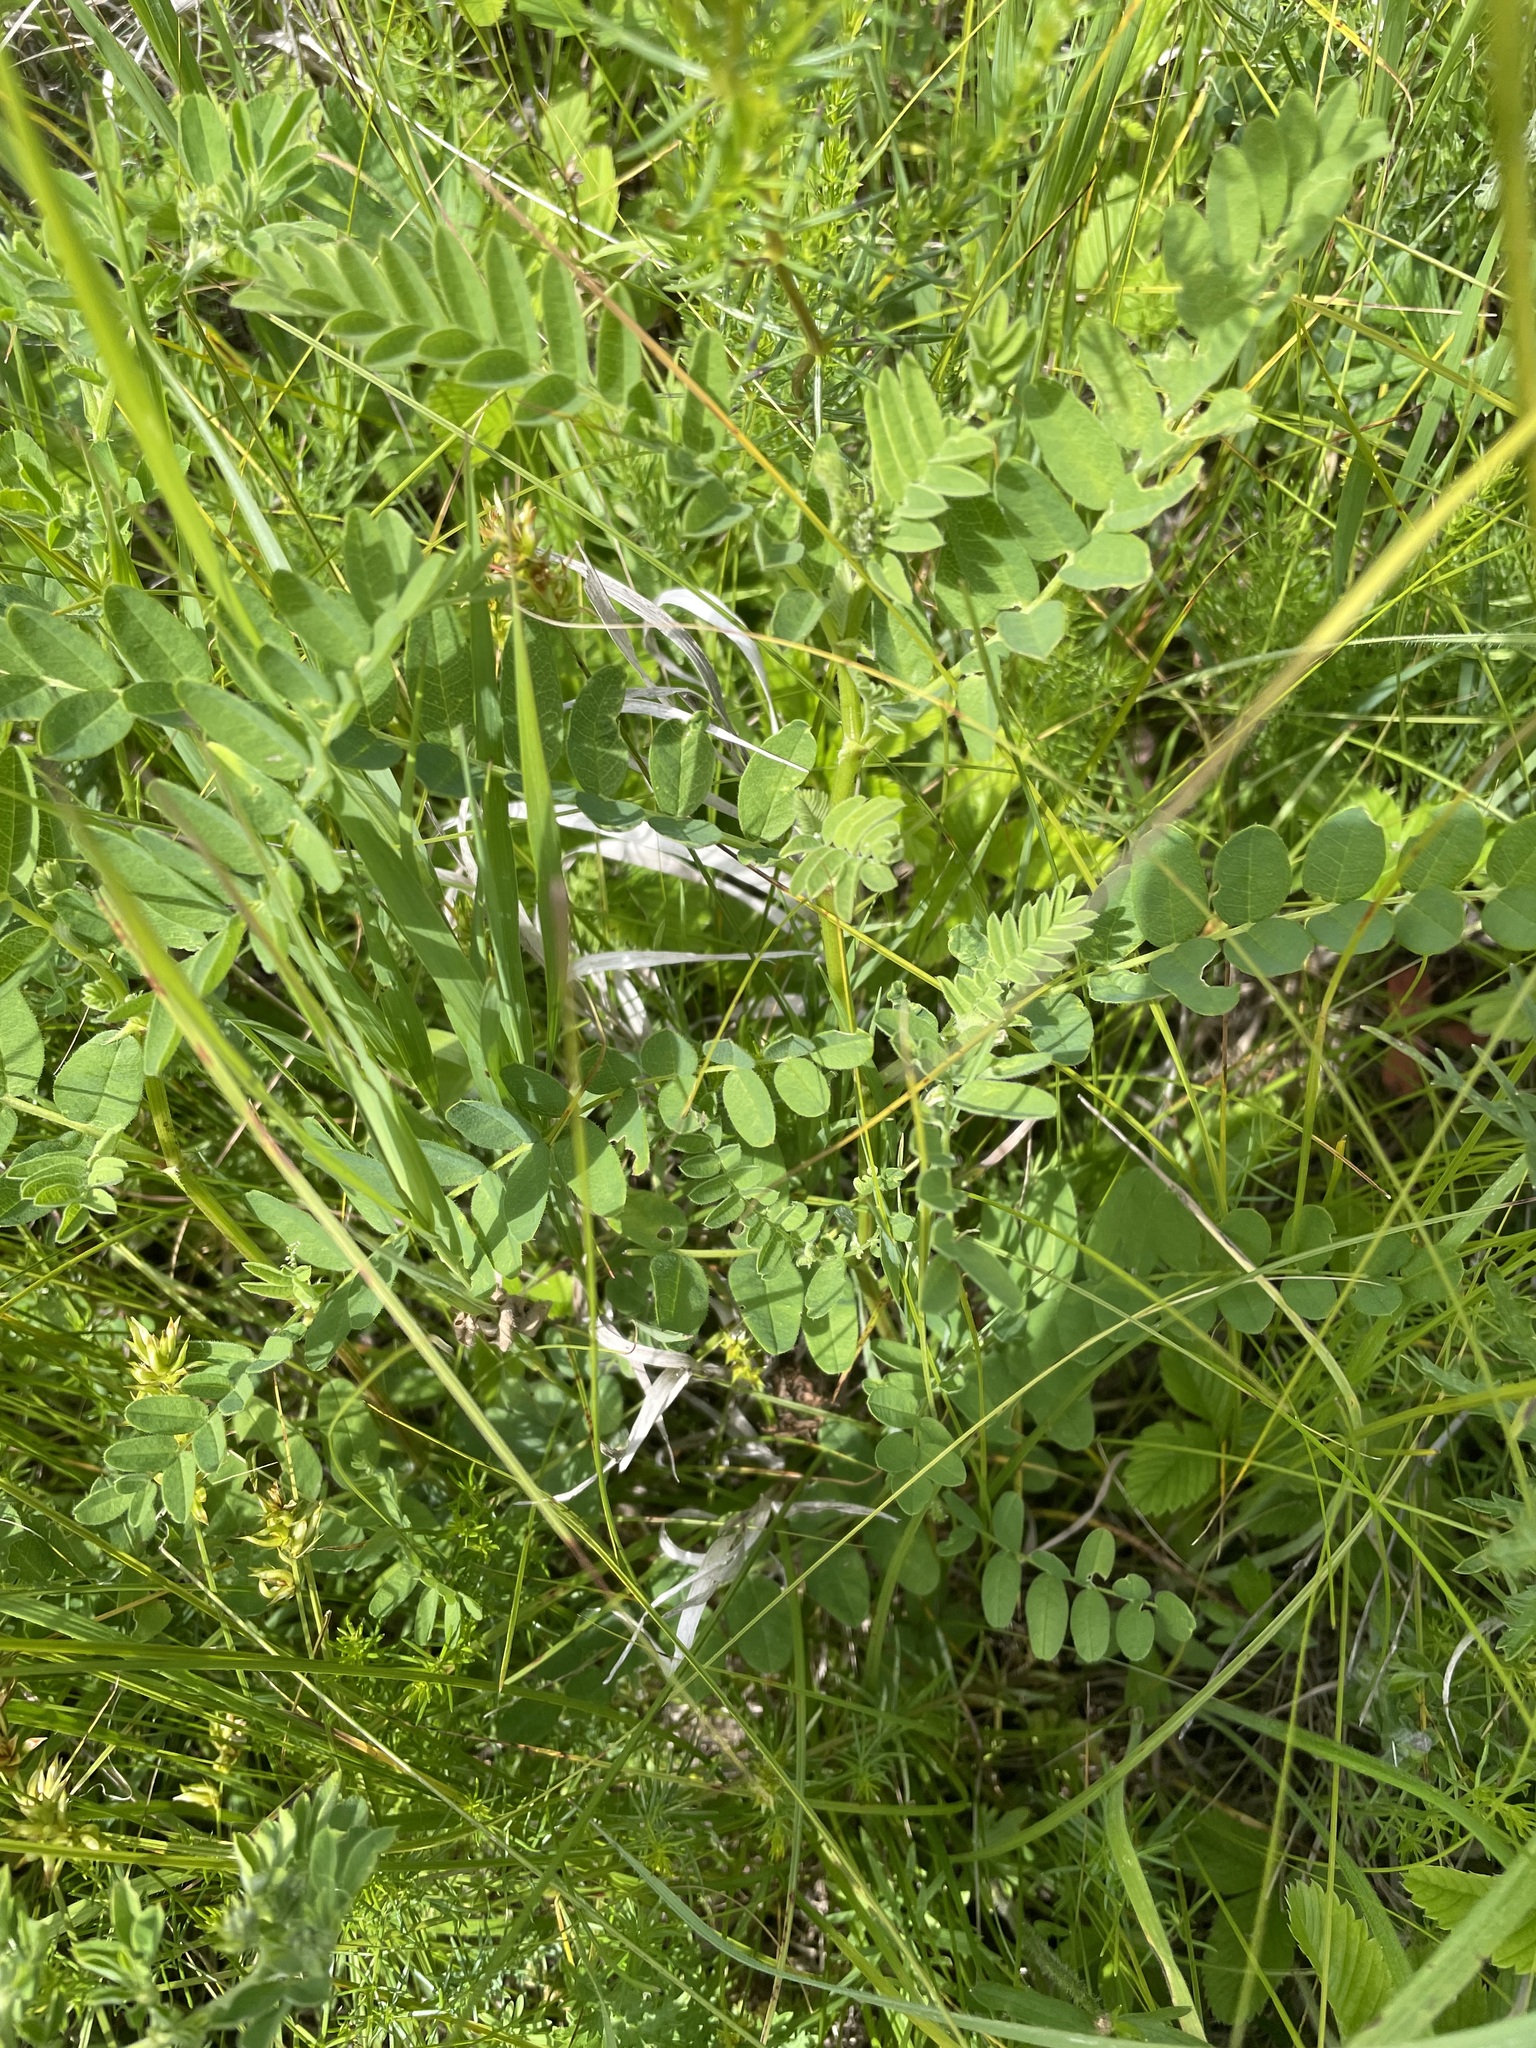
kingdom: Plantae
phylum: Tracheophyta
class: Magnoliopsida
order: Fabales
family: Fabaceae
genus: Astragalus
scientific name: Astragalus cicer
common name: Chick-pea milk-vetch
